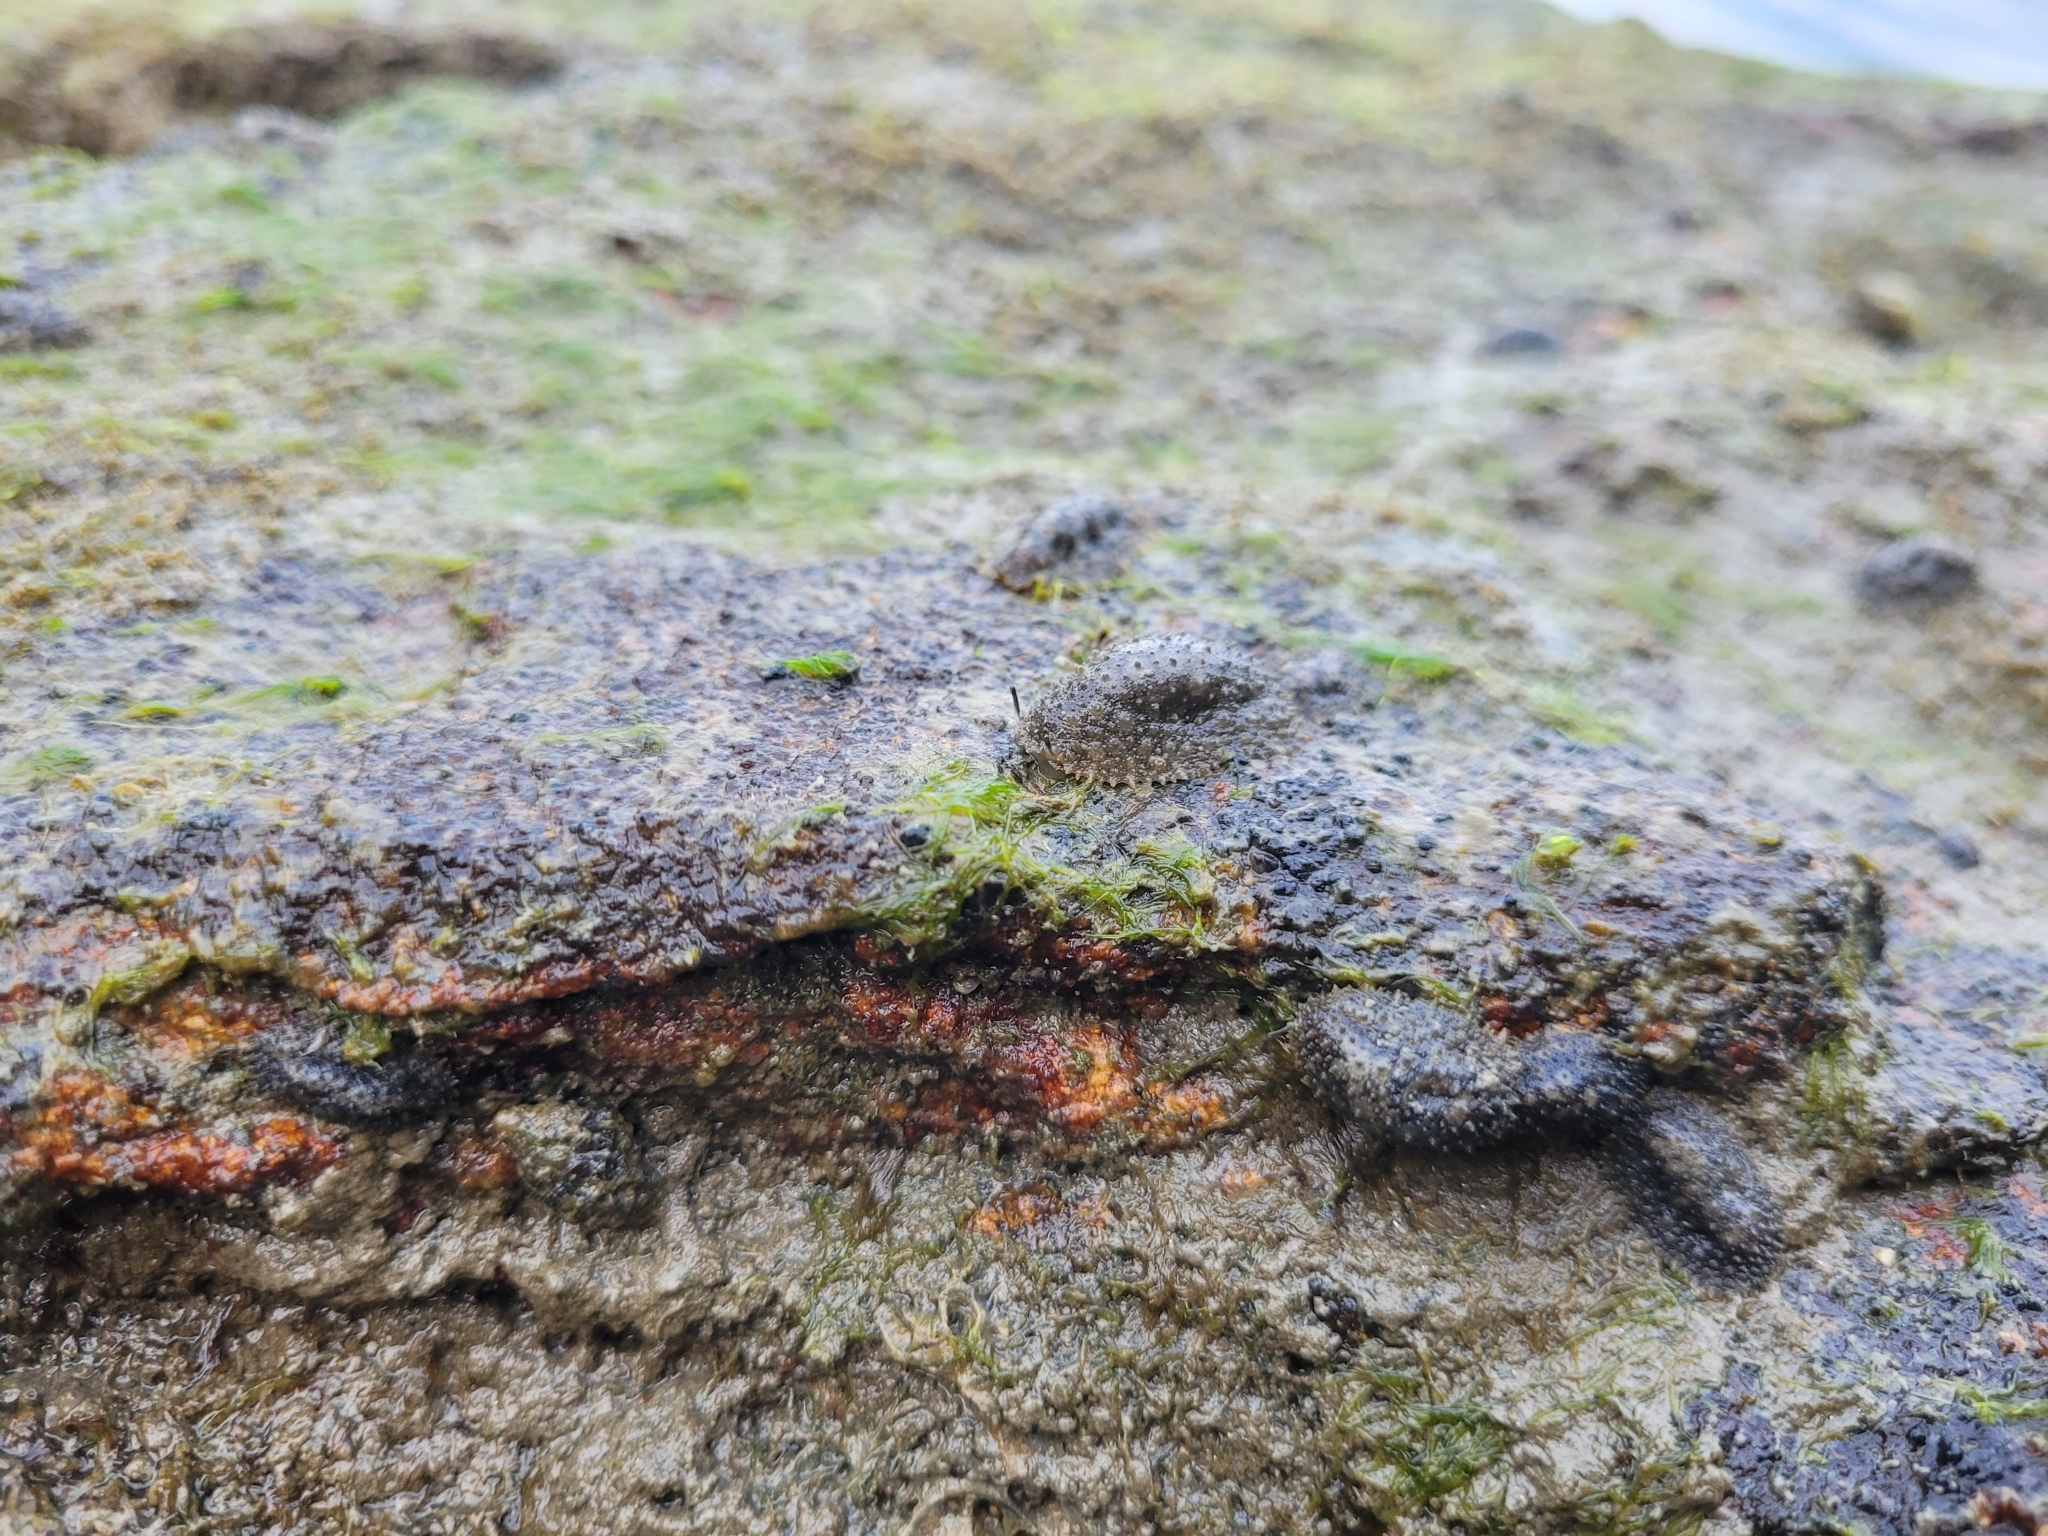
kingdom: Animalia
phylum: Mollusca
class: Gastropoda
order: Systellommatophora
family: Onchidiidae
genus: Onchidella
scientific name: Onchidella incisa
